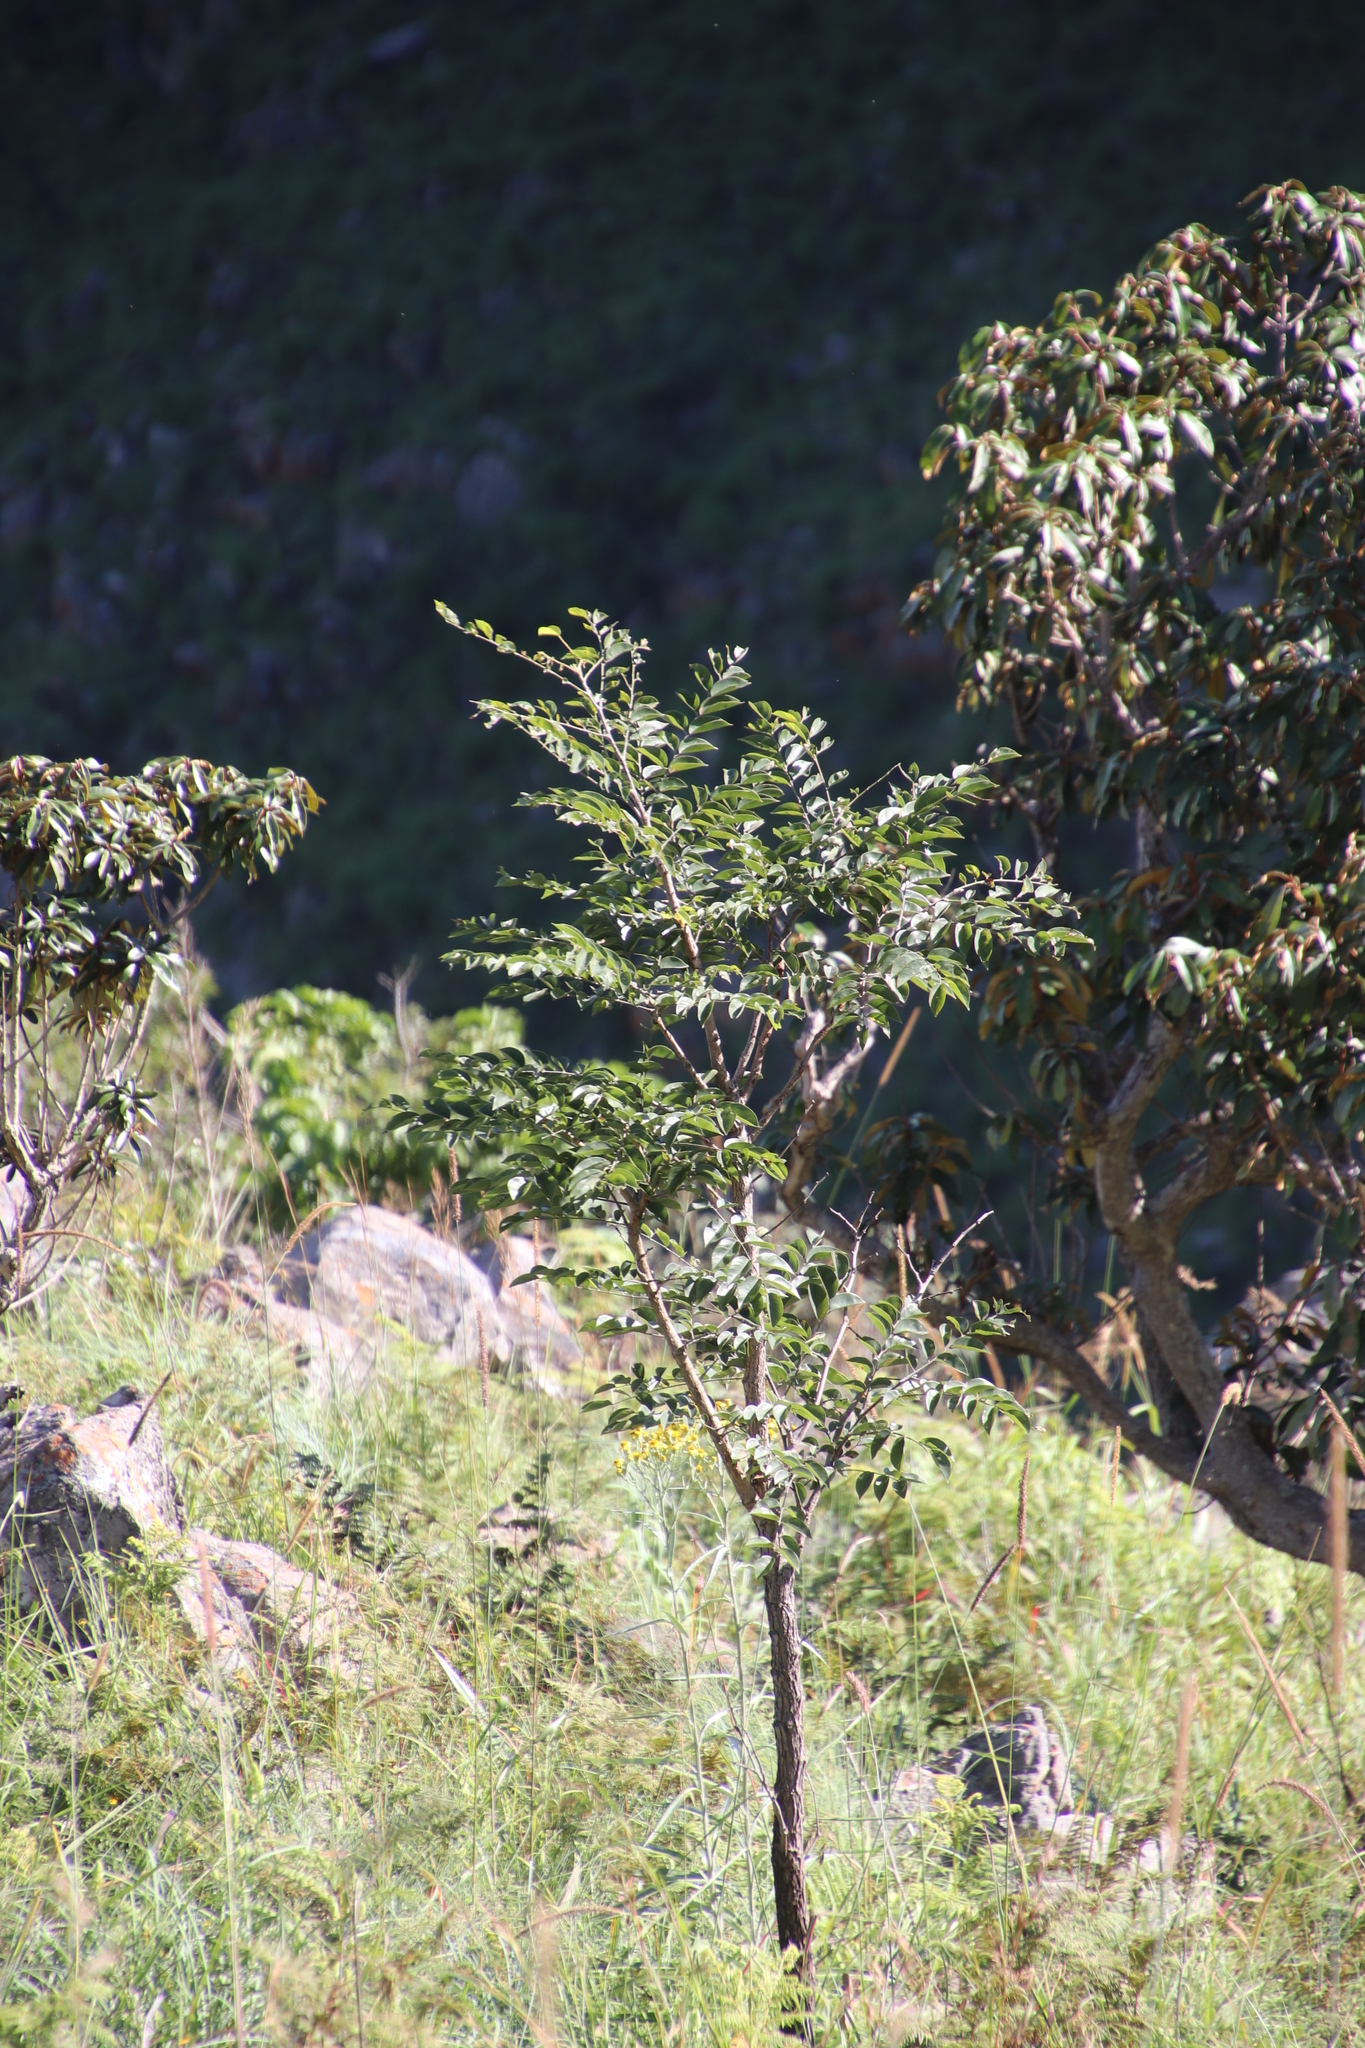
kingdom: Plantae
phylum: Tracheophyta
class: Magnoliopsida
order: Fabales
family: Fabaceae
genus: Pterocarpus
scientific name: Pterocarpus angolensis
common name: Bloodwood tree
